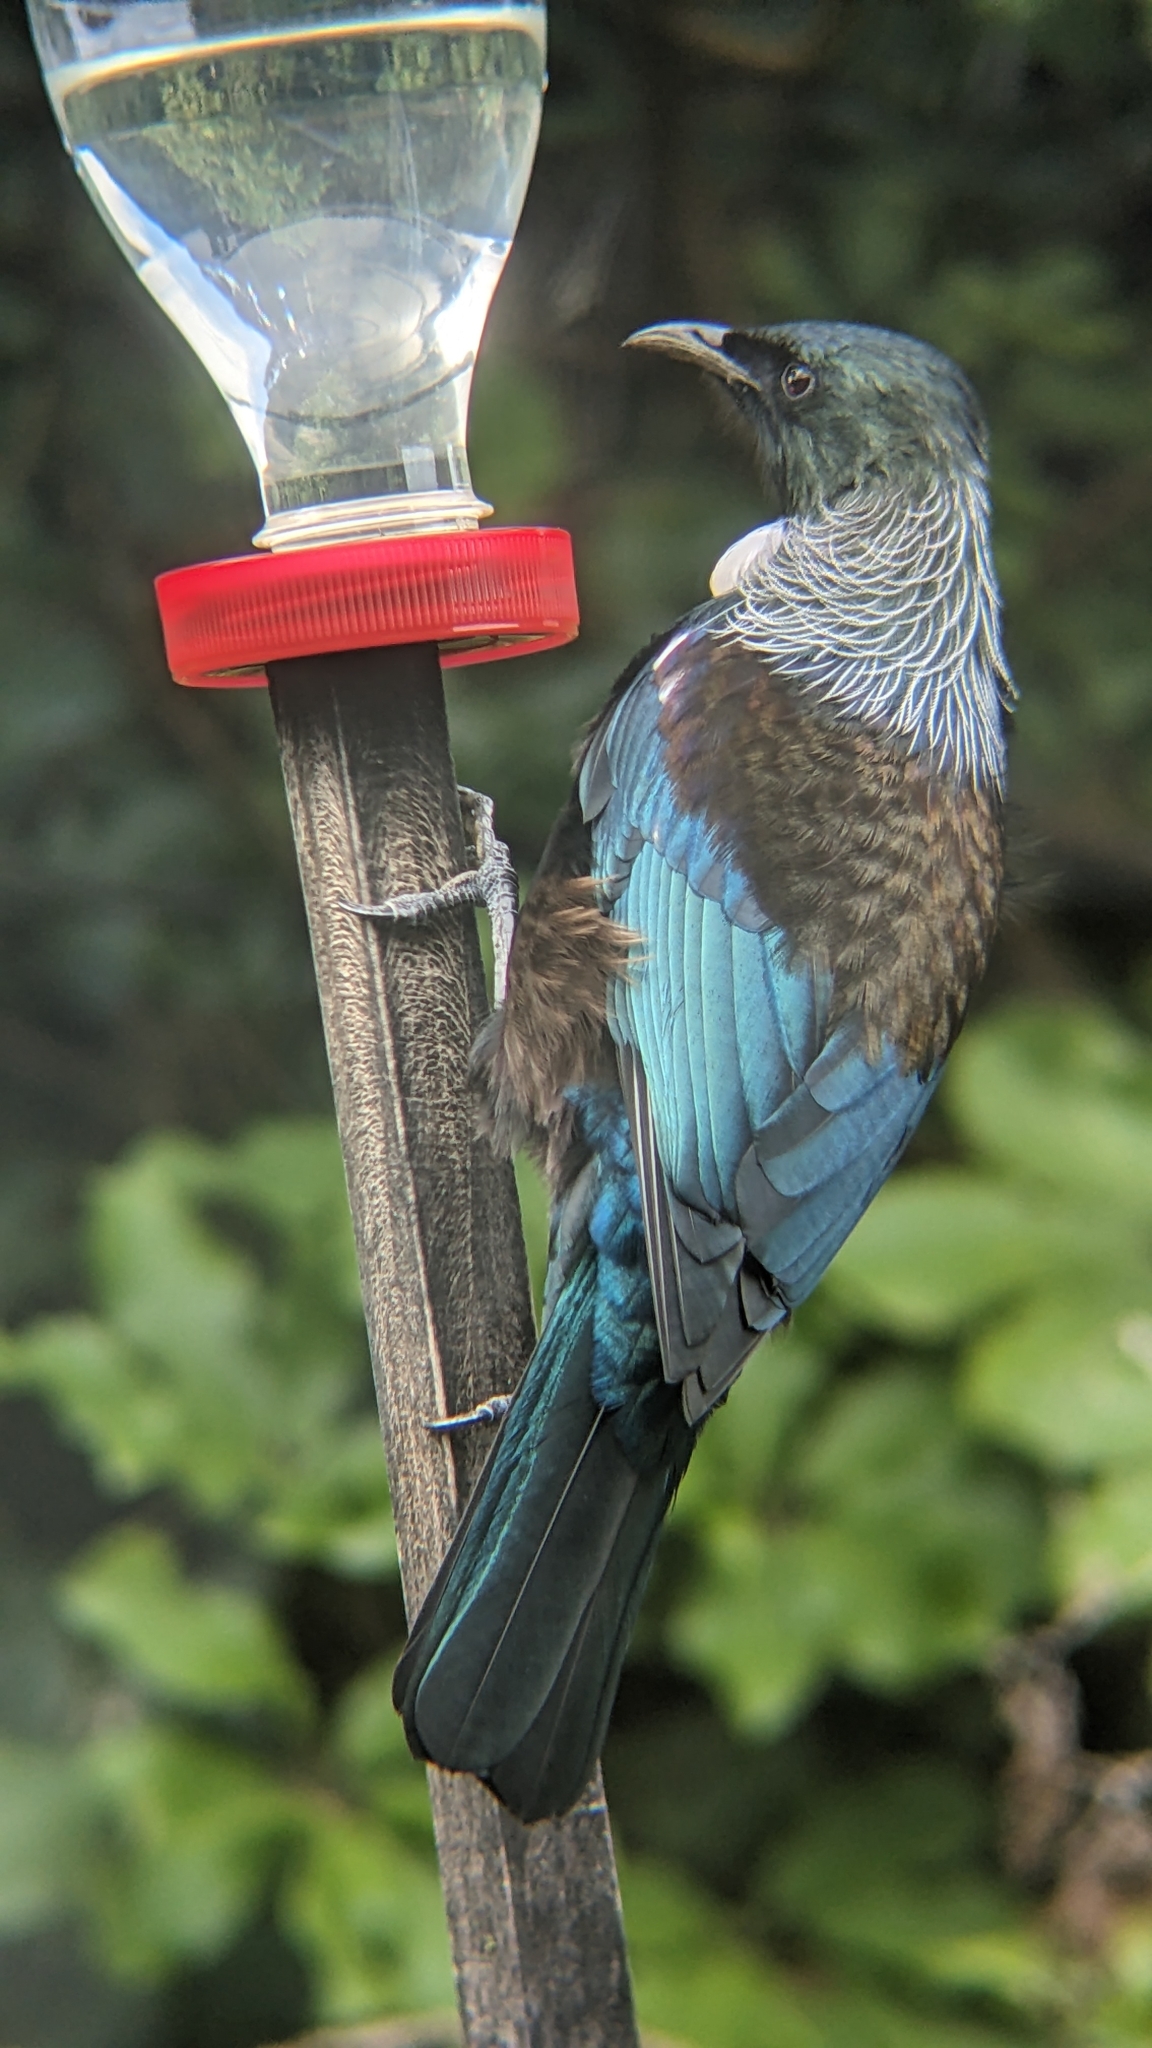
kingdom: Animalia
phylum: Chordata
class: Aves
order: Passeriformes
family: Meliphagidae
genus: Prosthemadera
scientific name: Prosthemadera novaeseelandiae
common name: Tui
